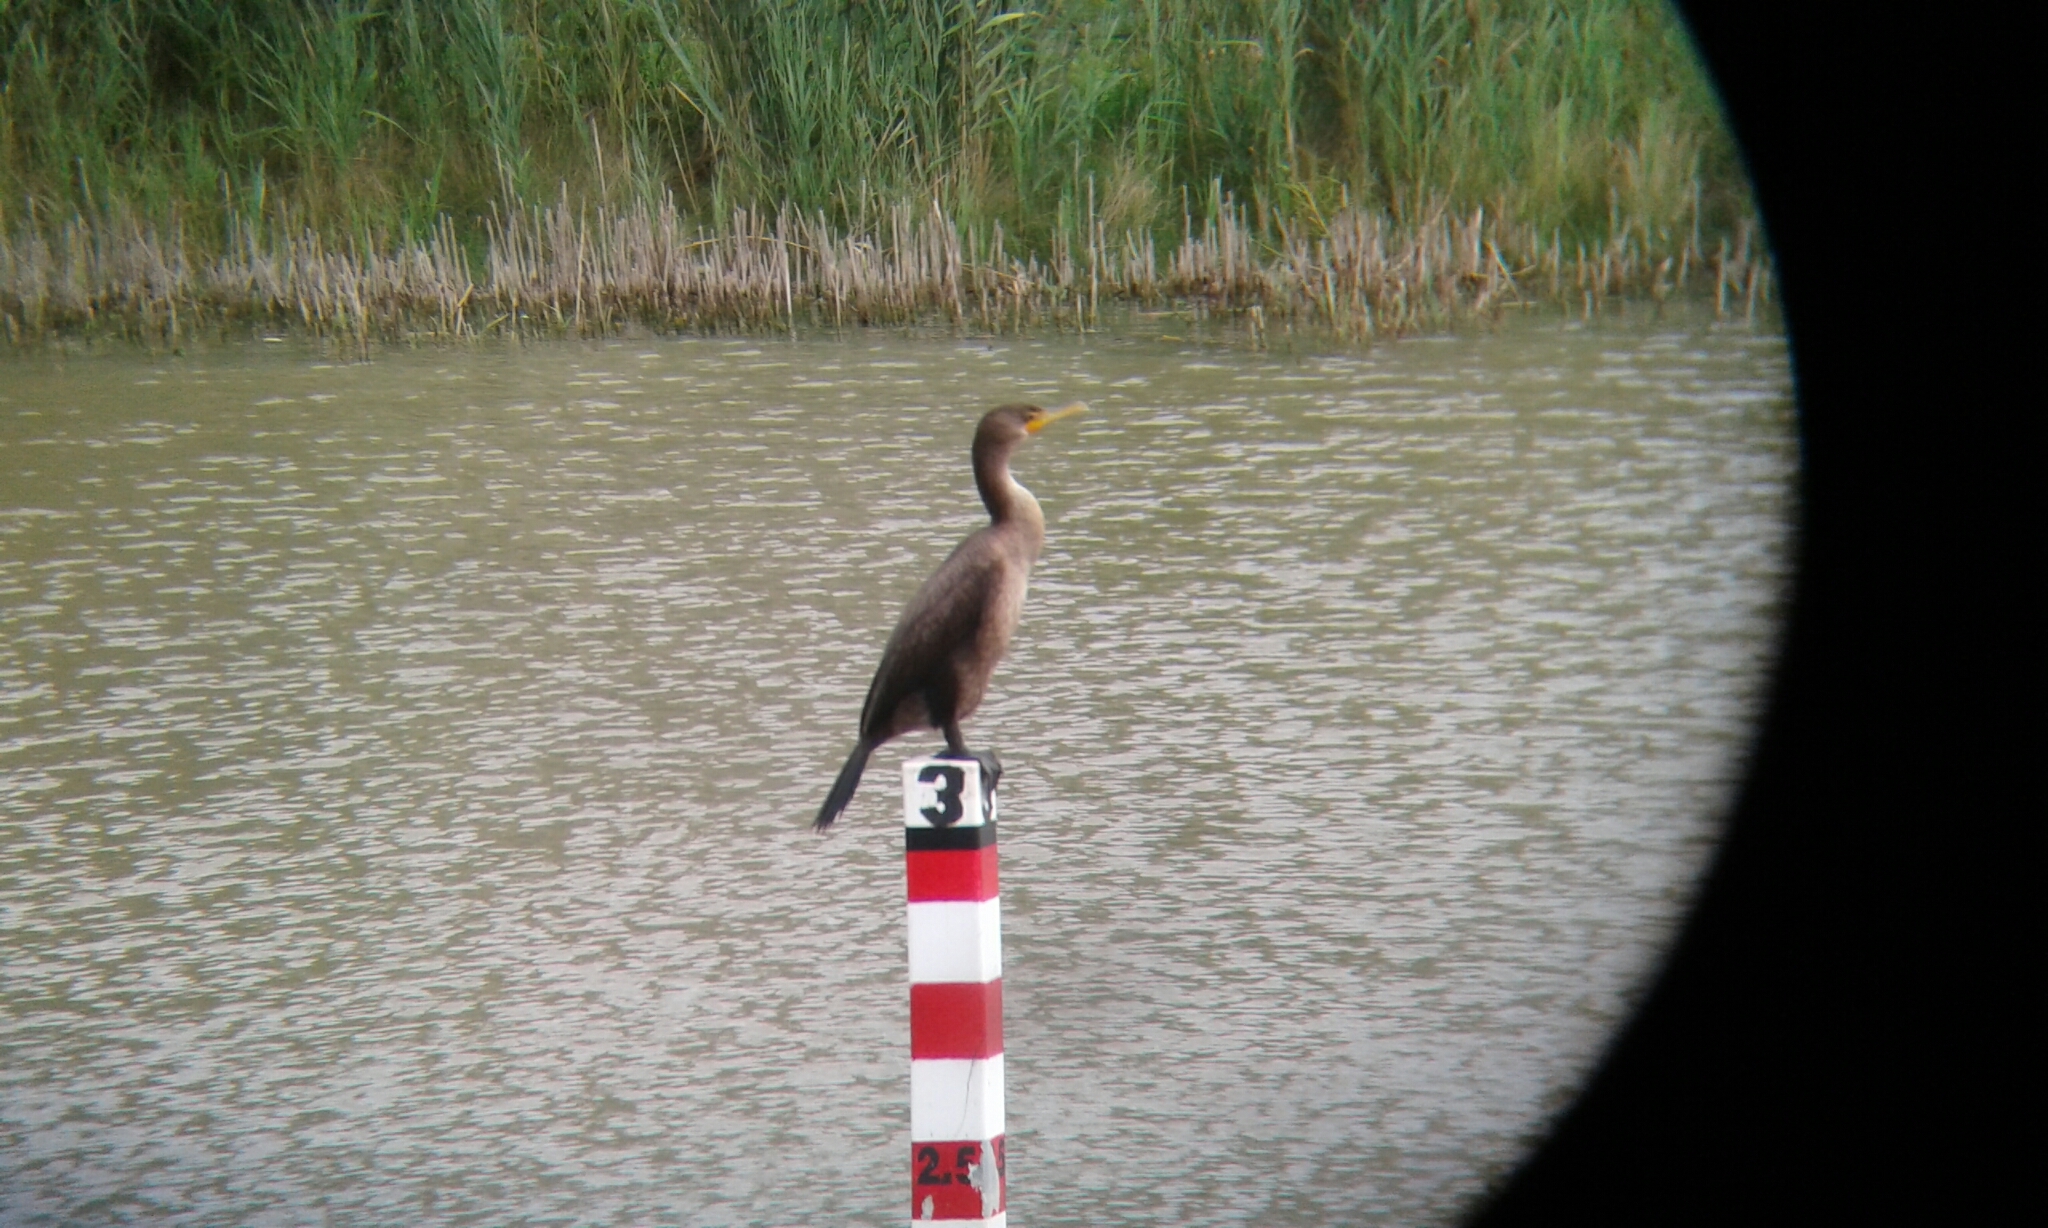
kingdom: Animalia
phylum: Chordata
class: Aves
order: Suliformes
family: Phalacrocoracidae
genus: Phalacrocorax
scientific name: Phalacrocorax auritus
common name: Double-crested cormorant
